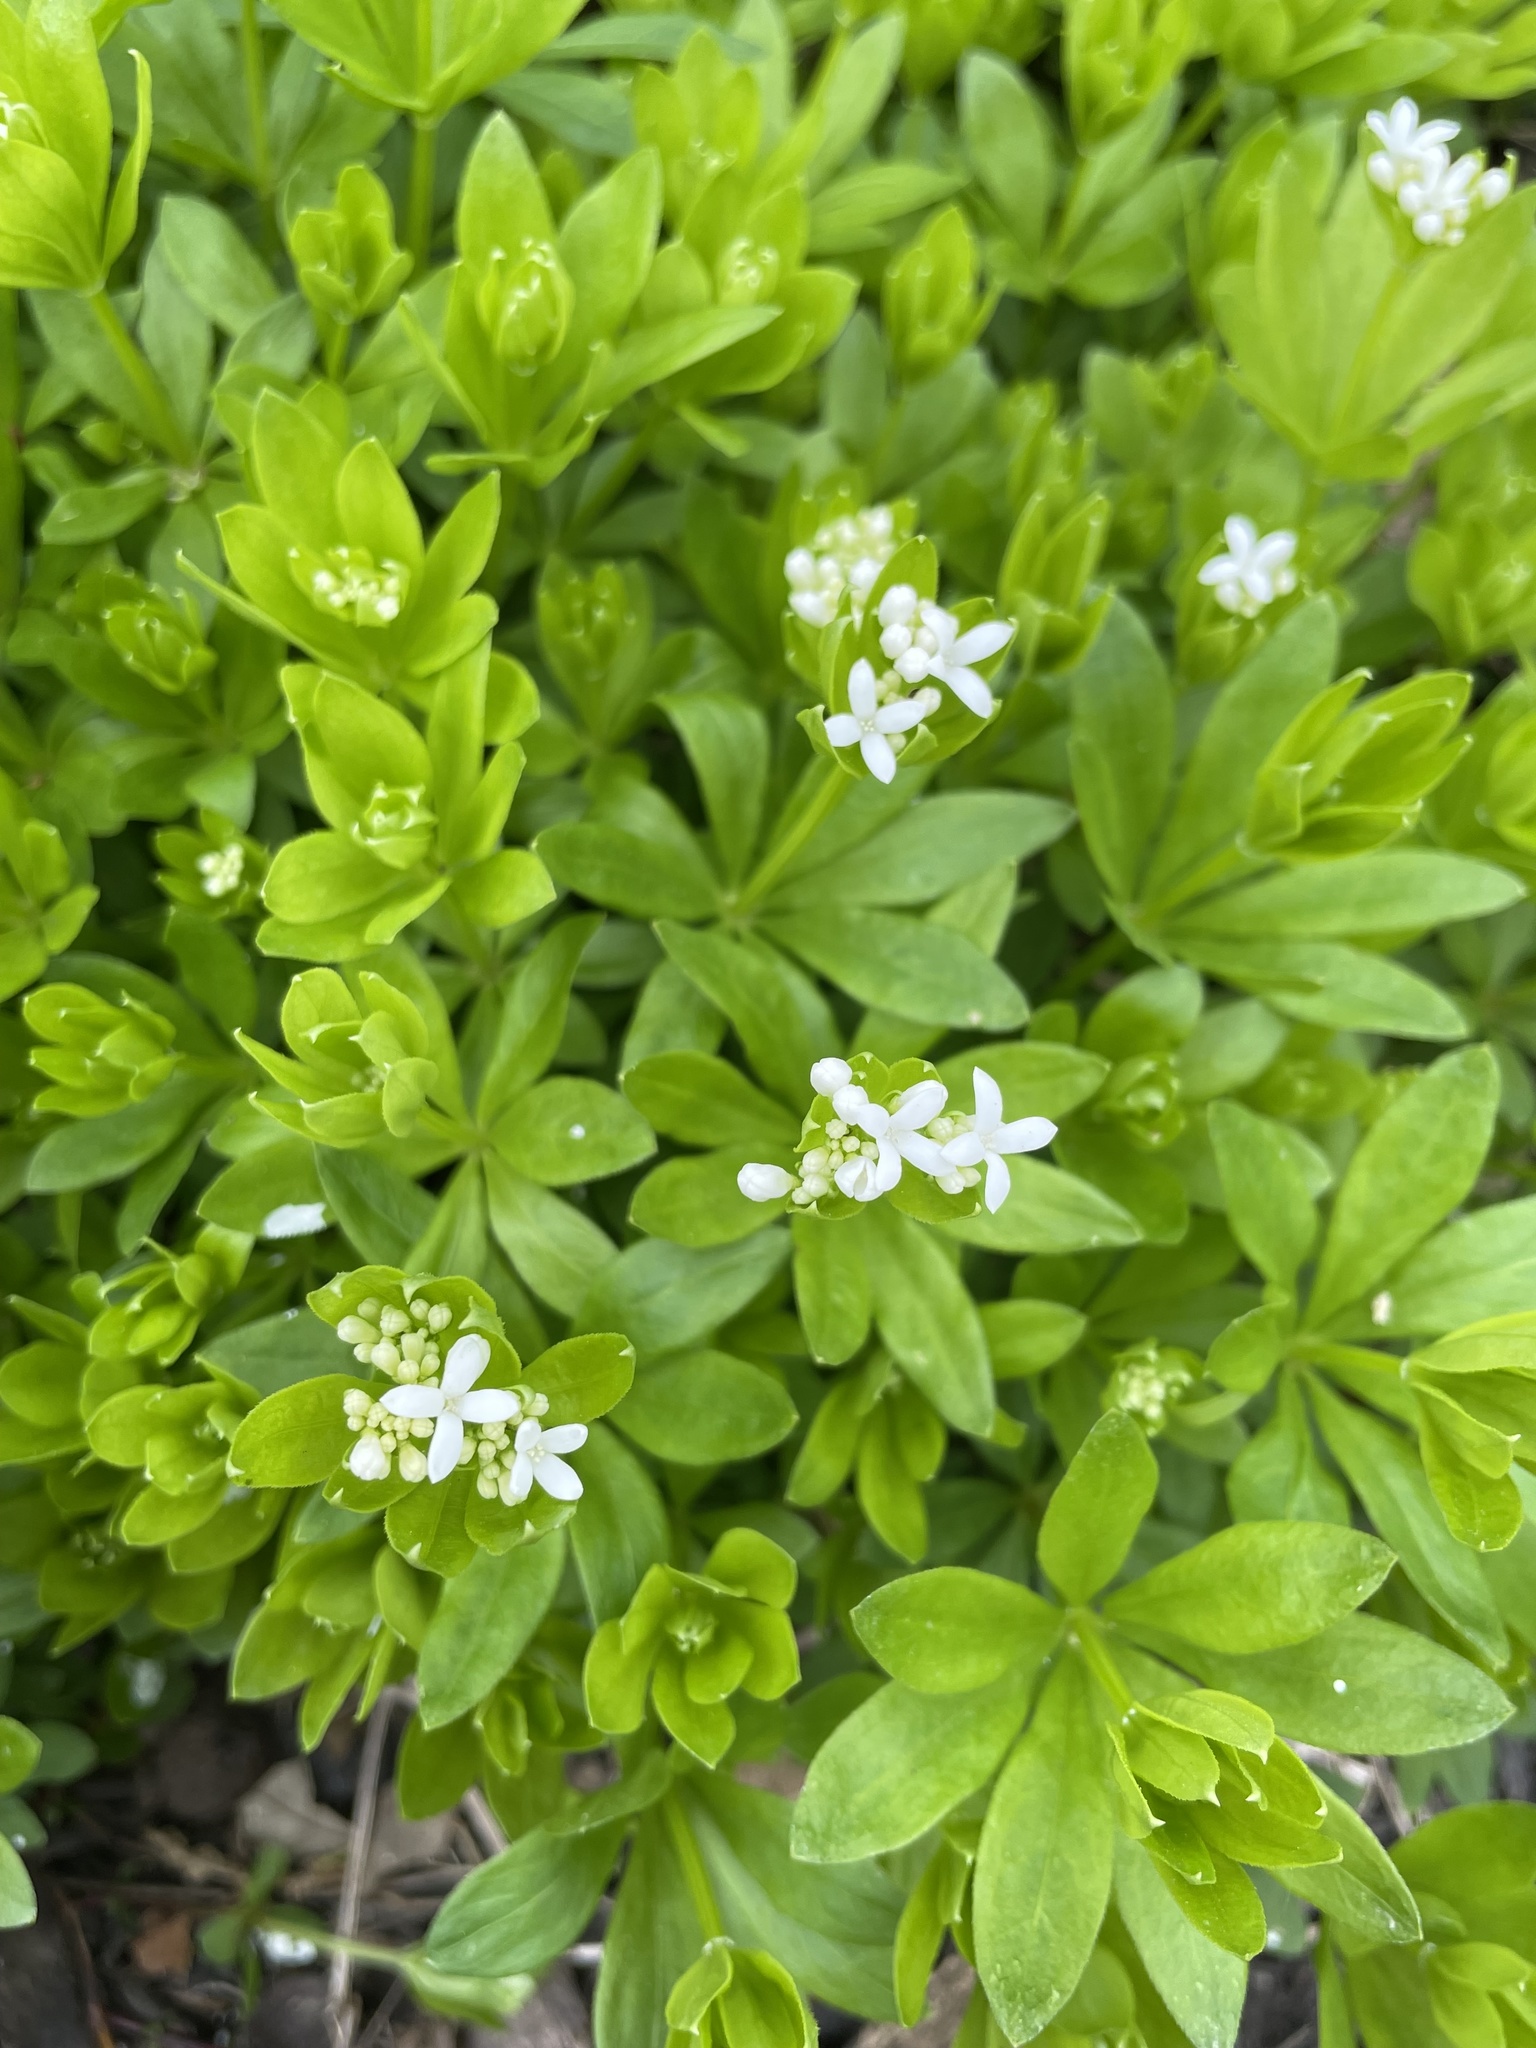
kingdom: Plantae
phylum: Tracheophyta
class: Magnoliopsida
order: Gentianales
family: Rubiaceae
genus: Galium
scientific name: Galium odoratum
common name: Sweet woodruff
